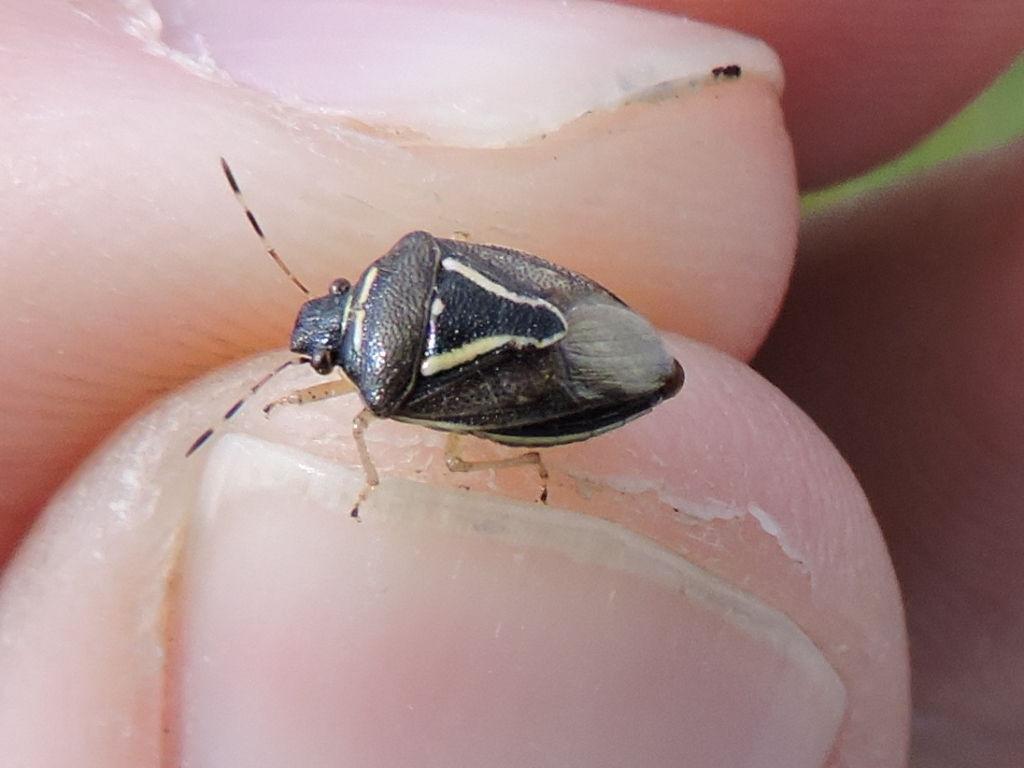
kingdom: Animalia
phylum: Arthropoda
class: Insecta
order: Hemiptera
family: Pentatomidae
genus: Mormidea
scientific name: Mormidea lugens
